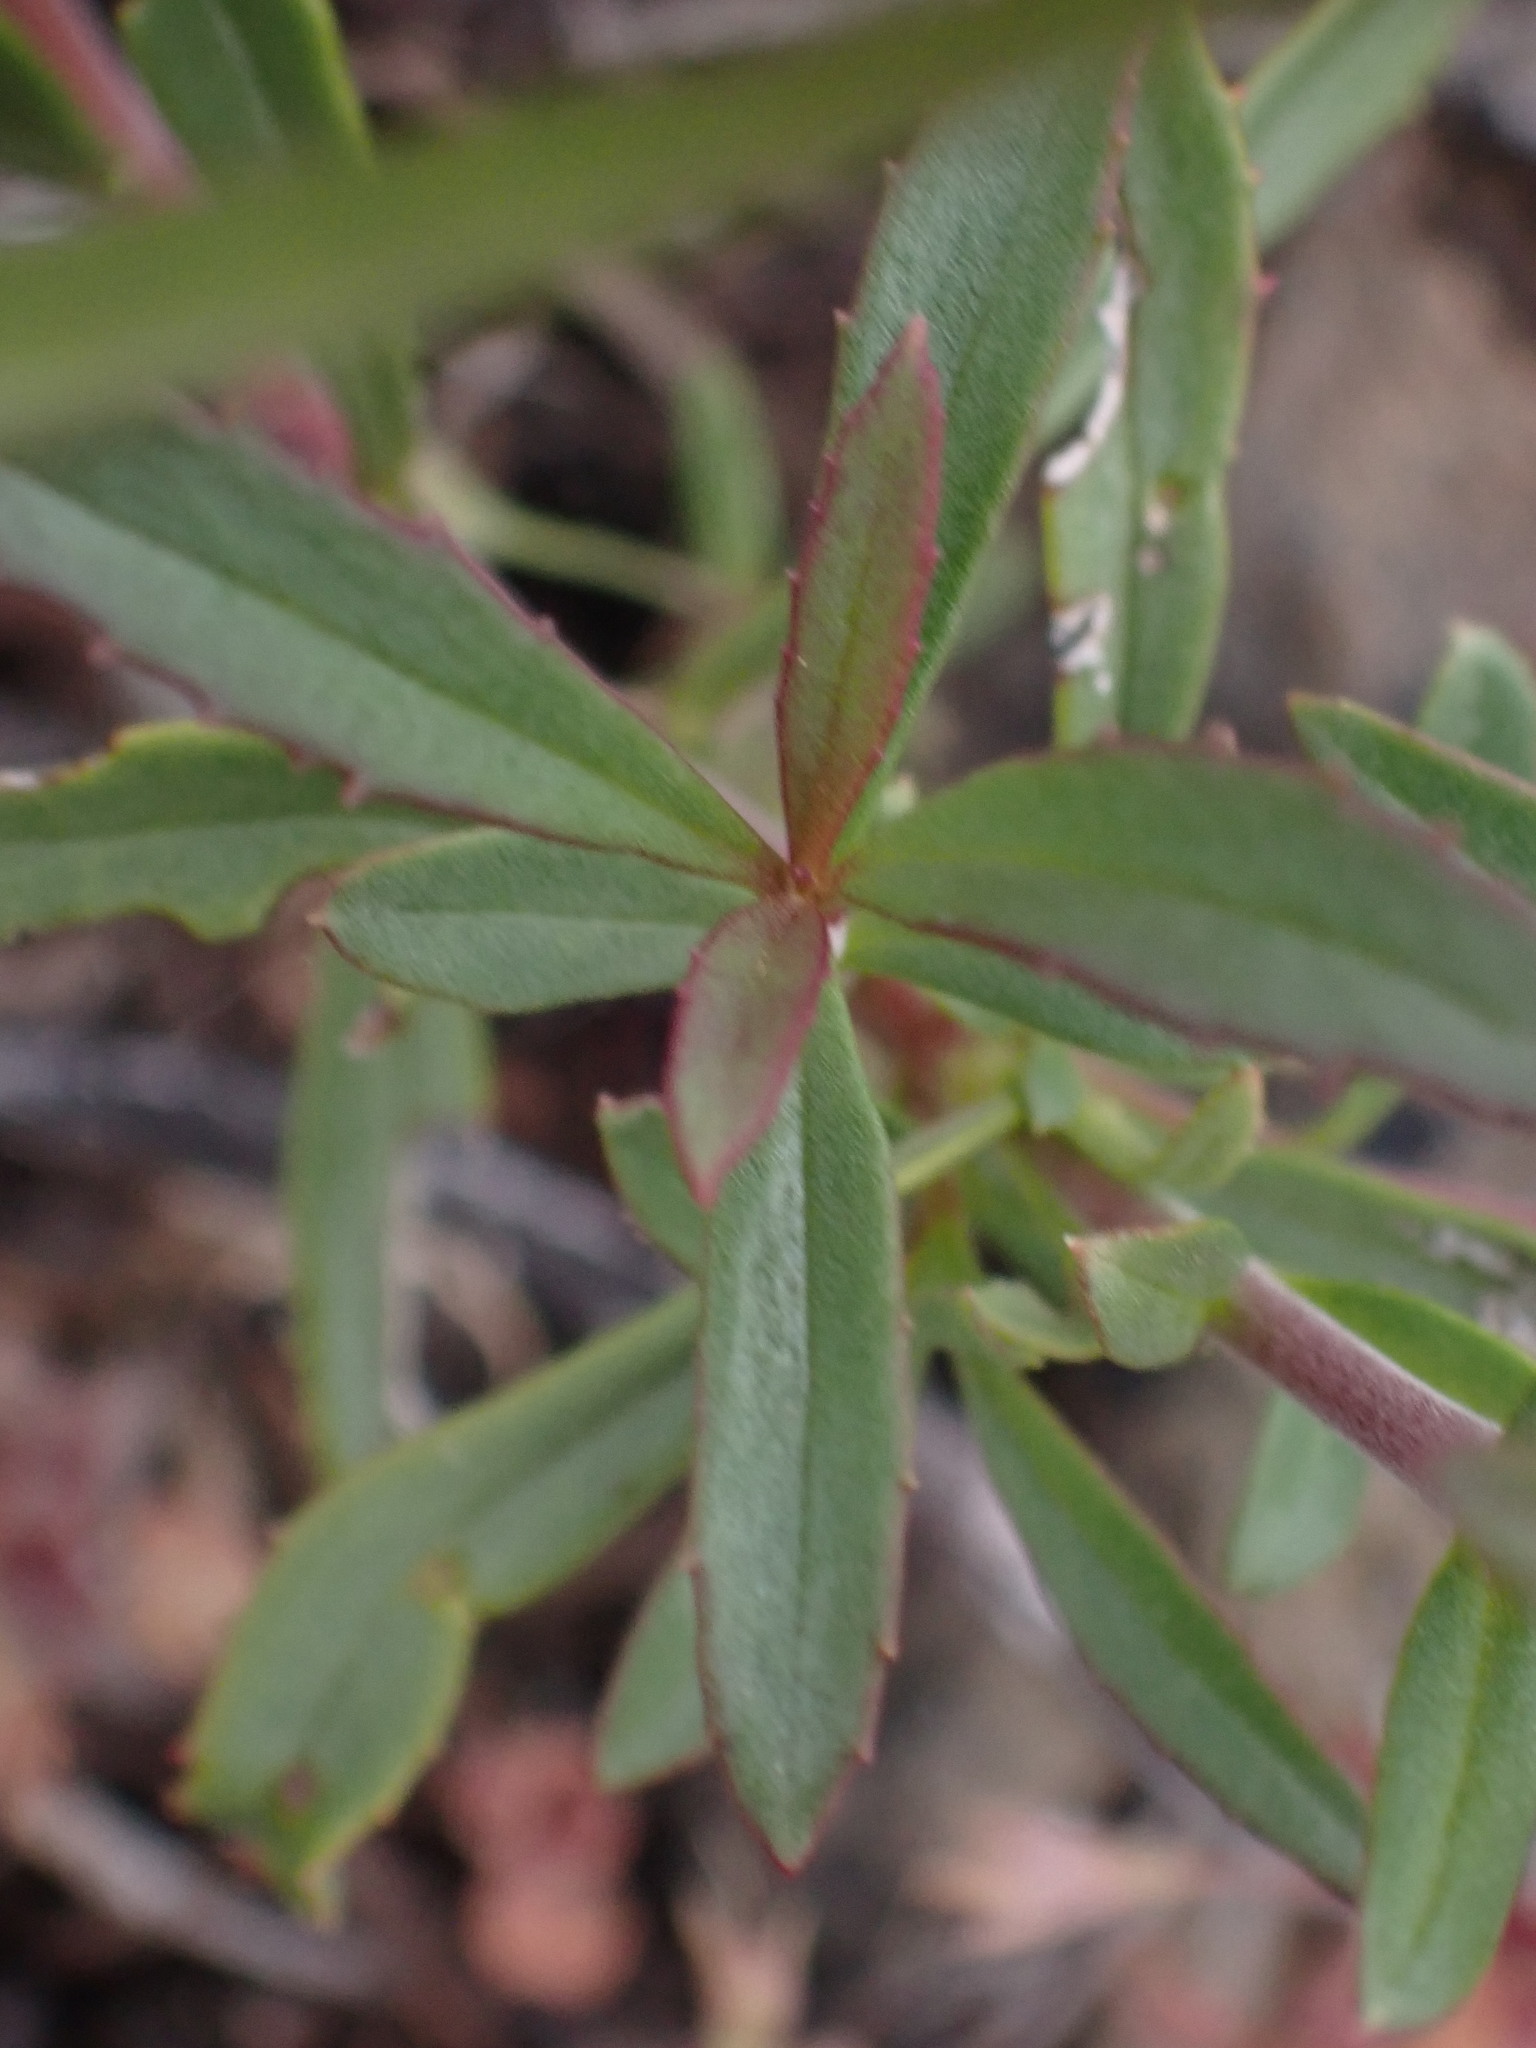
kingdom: Plantae
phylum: Tracheophyta
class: Magnoliopsida
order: Lamiales
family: Plantaginaceae
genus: Penstemon
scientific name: Penstemon fruticosus
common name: Bush penstemon
